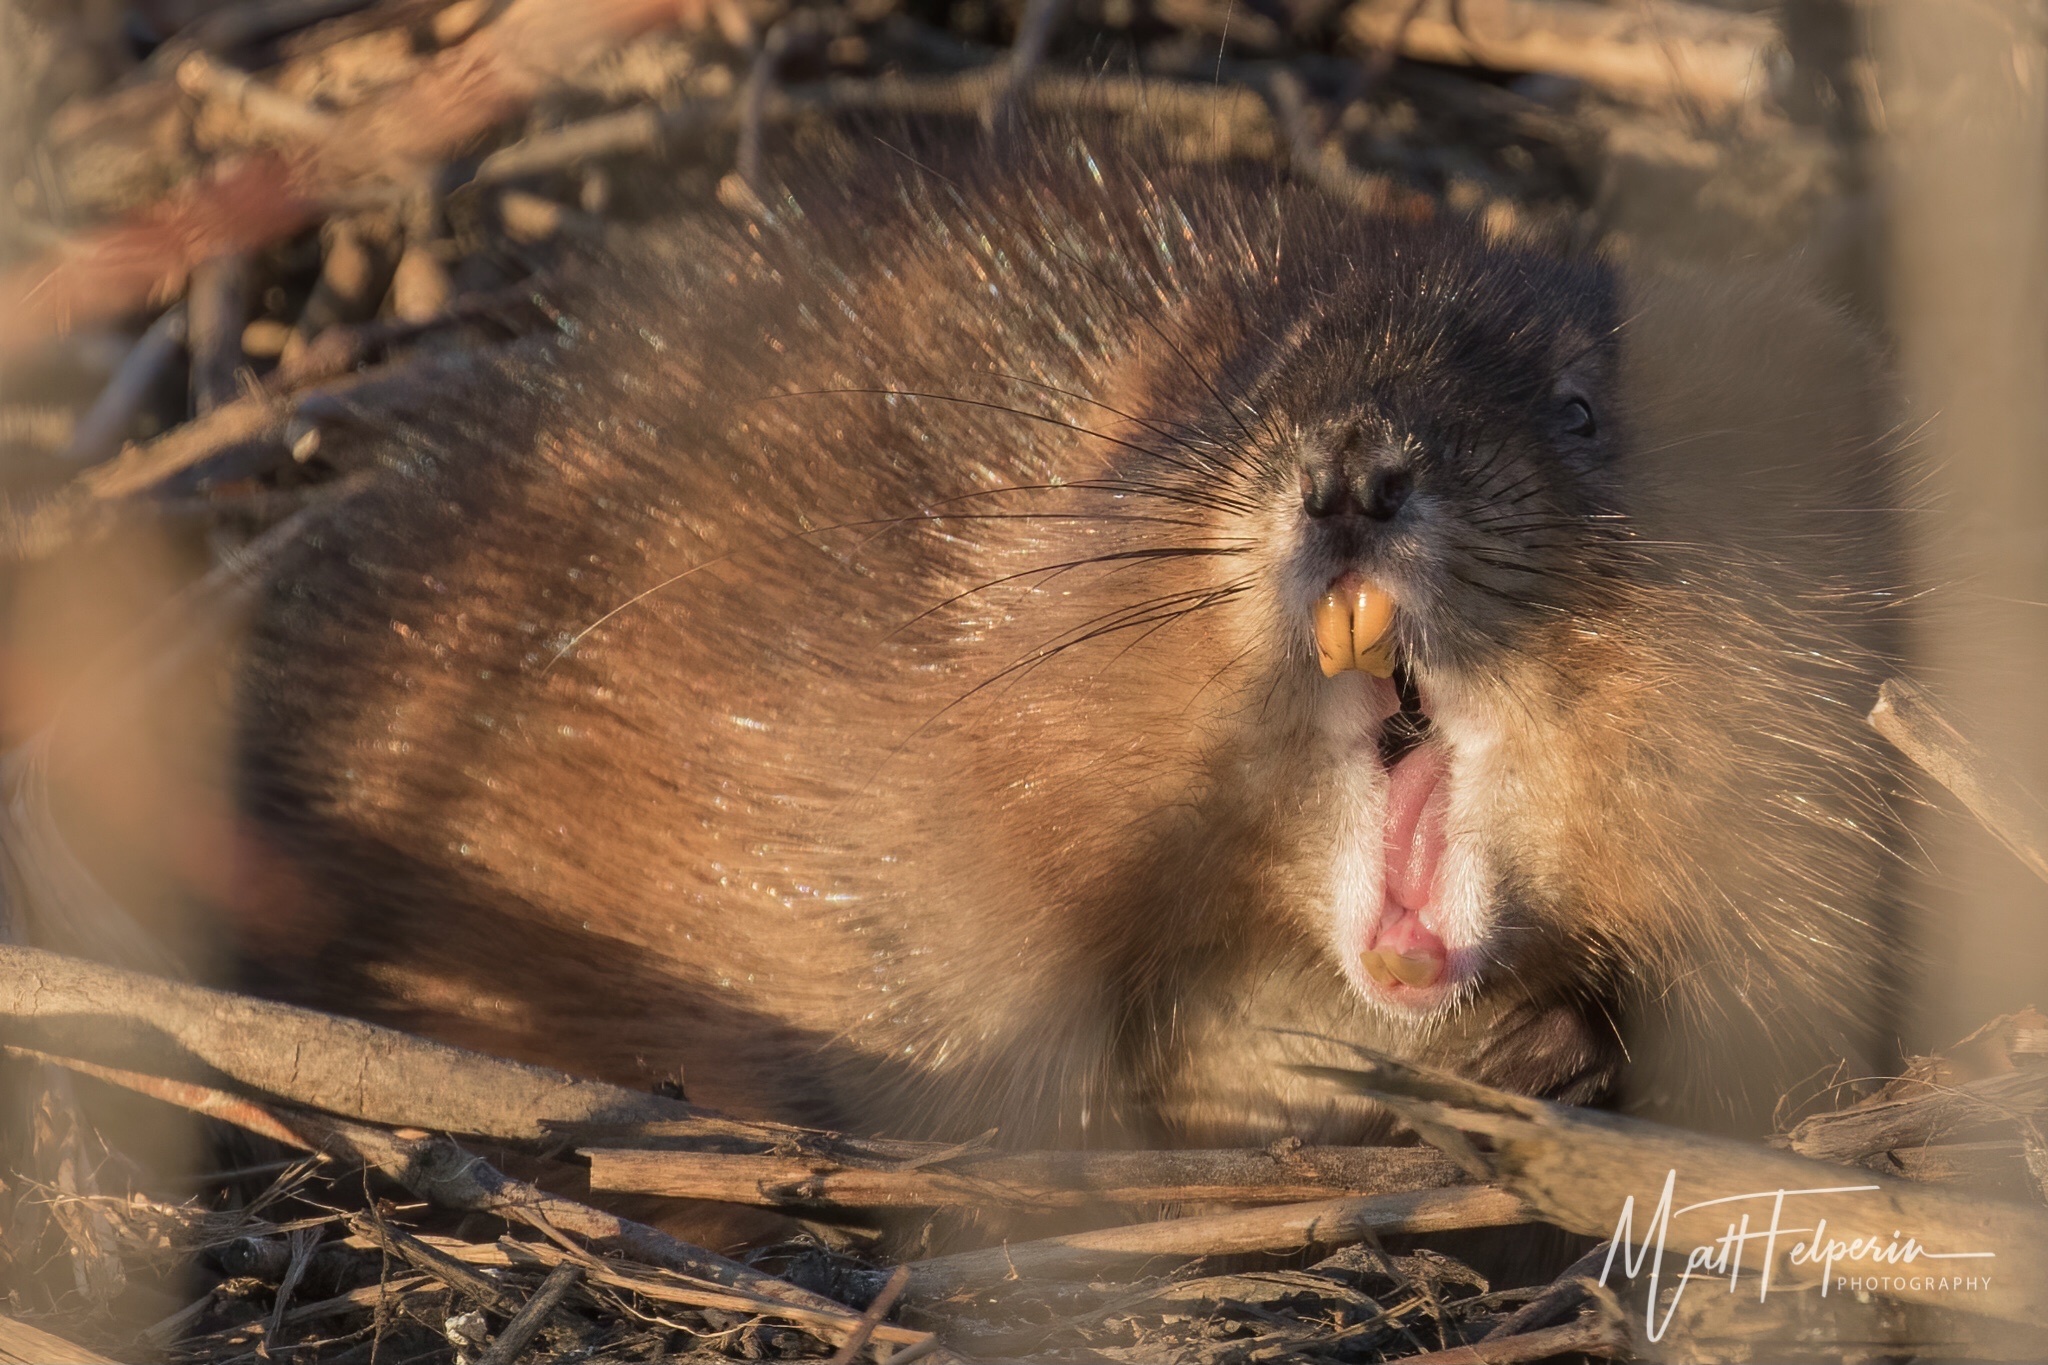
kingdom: Animalia
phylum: Chordata
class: Mammalia
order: Rodentia
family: Cricetidae
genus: Ondatra
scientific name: Ondatra zibethicus
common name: Muskrat
